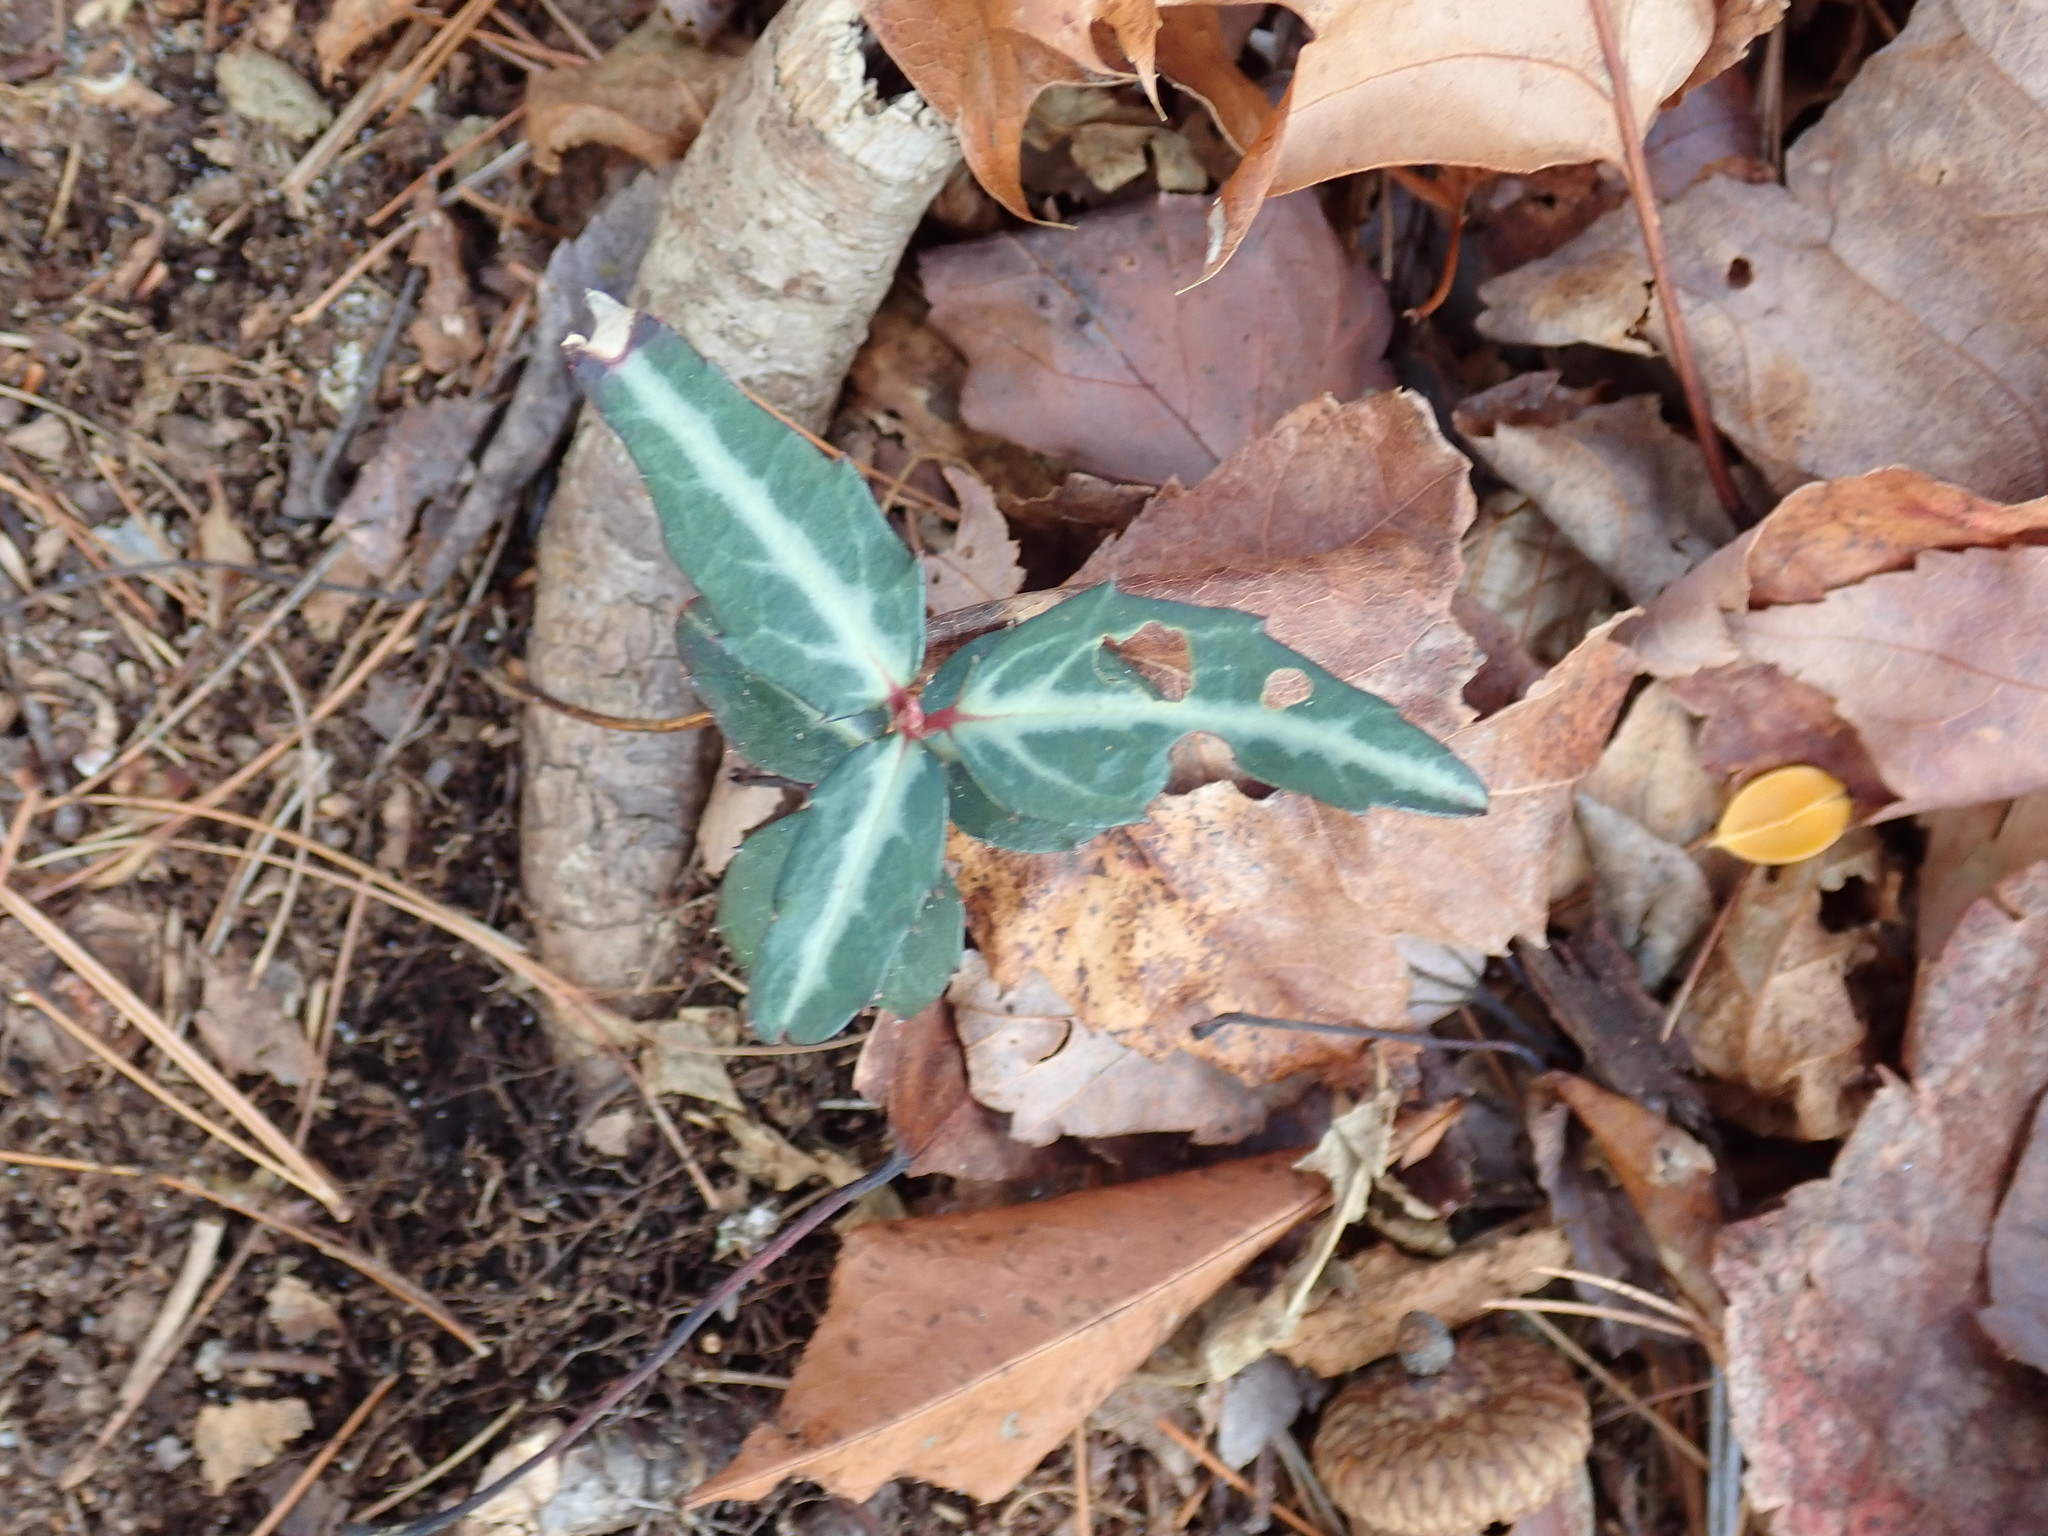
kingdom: Plantae
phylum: Tracheophyta
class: Magnoliopsida
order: Ericales
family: Ericaceae
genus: Chimaphila
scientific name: Chimaphila maculata
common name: Spotted pipsissewa
